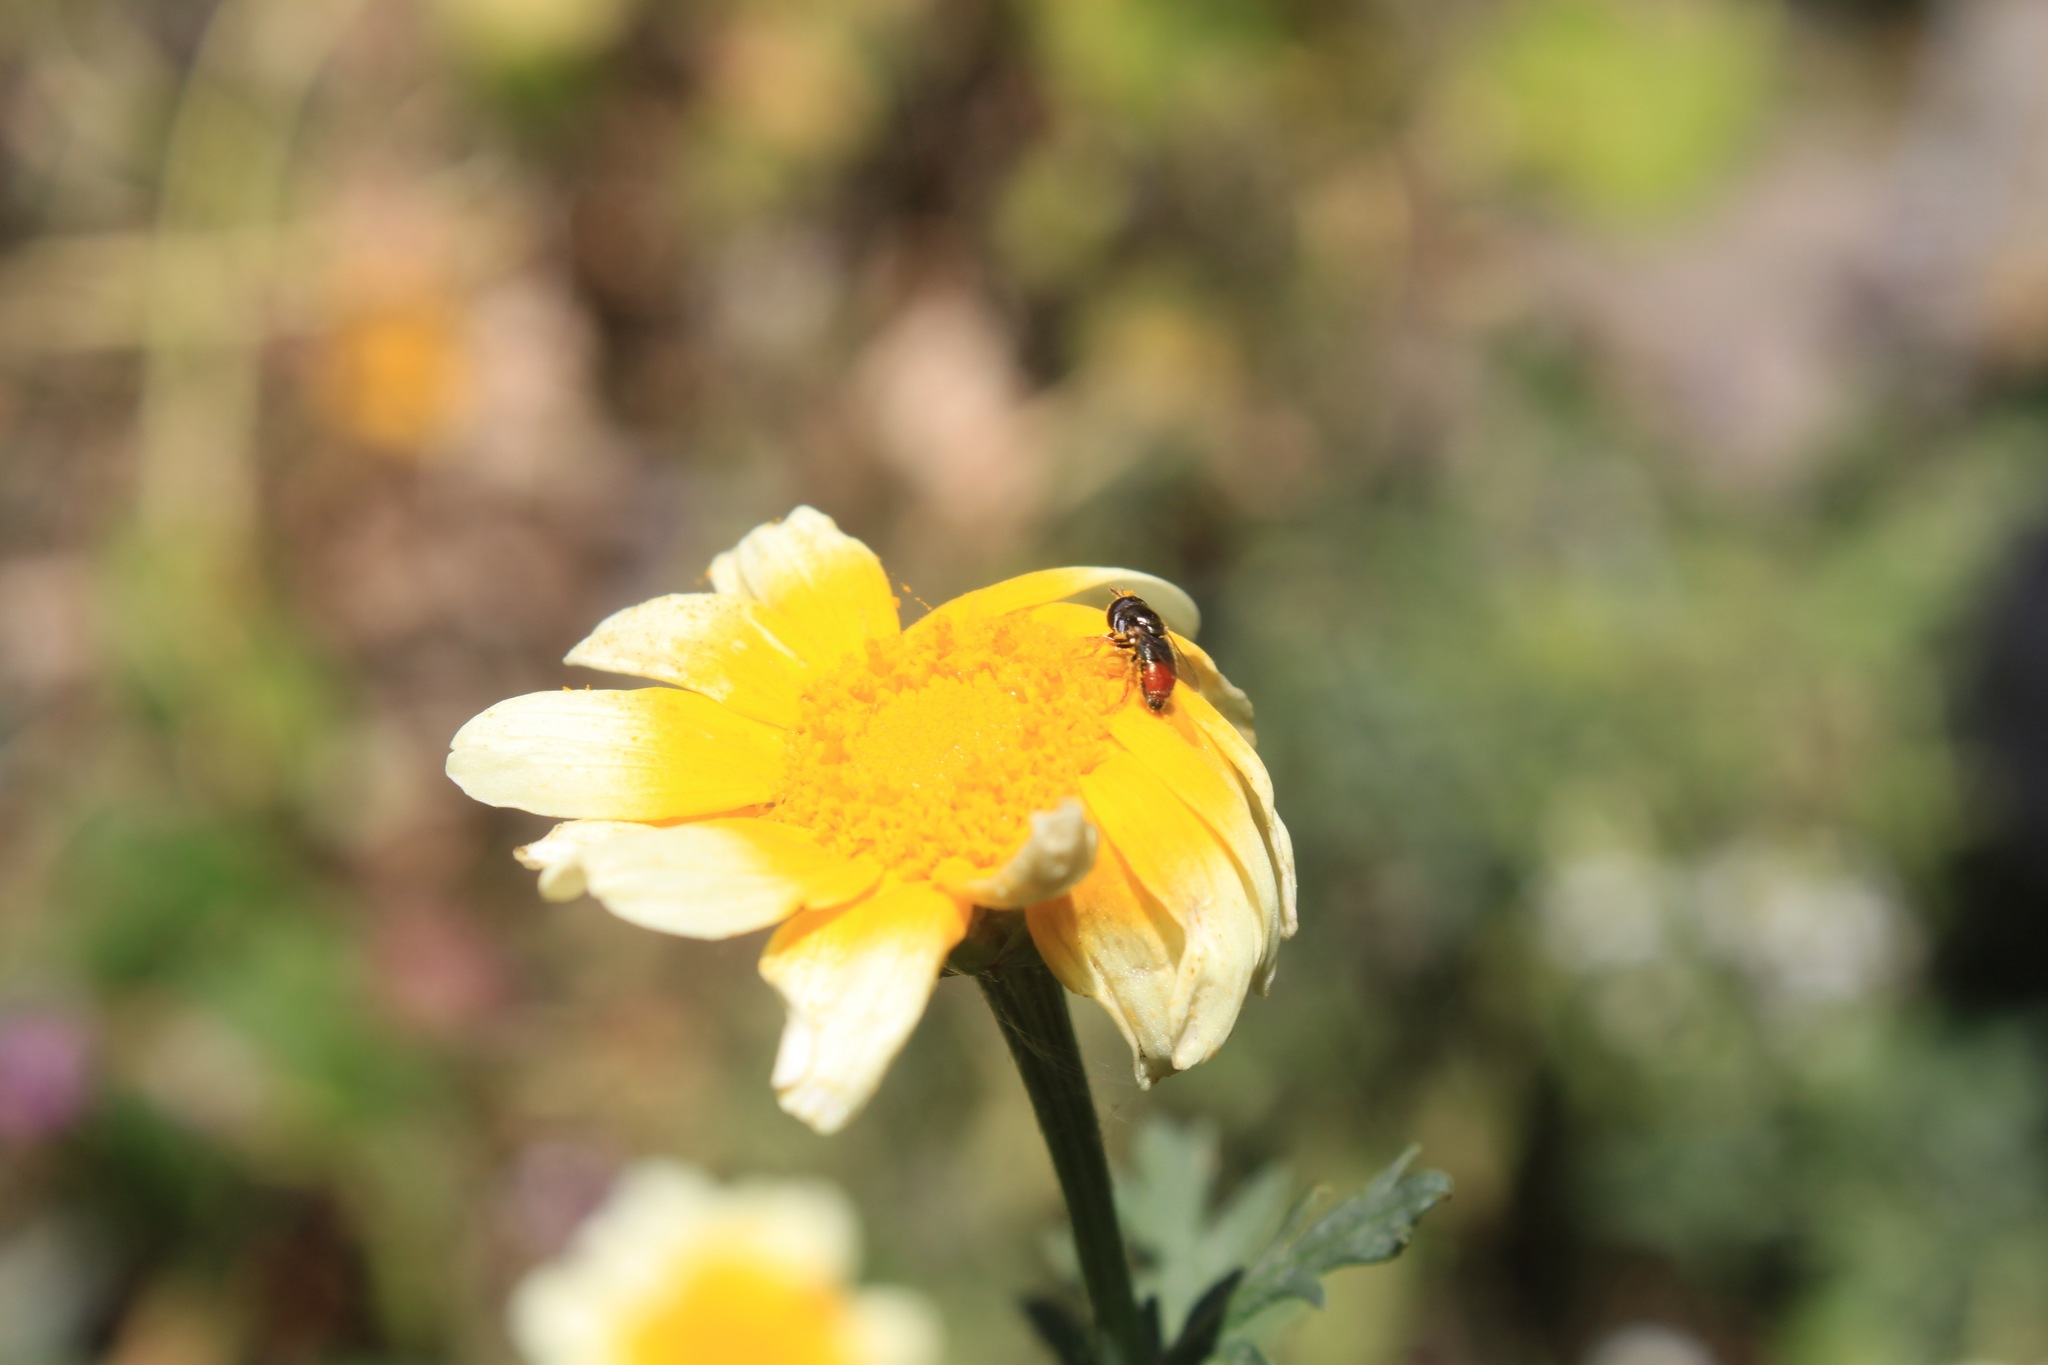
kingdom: Animalia
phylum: Arthropoda
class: Insecta
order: Diptera
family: Syrphidae
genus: Paragus
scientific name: Paragus haemorrhous
